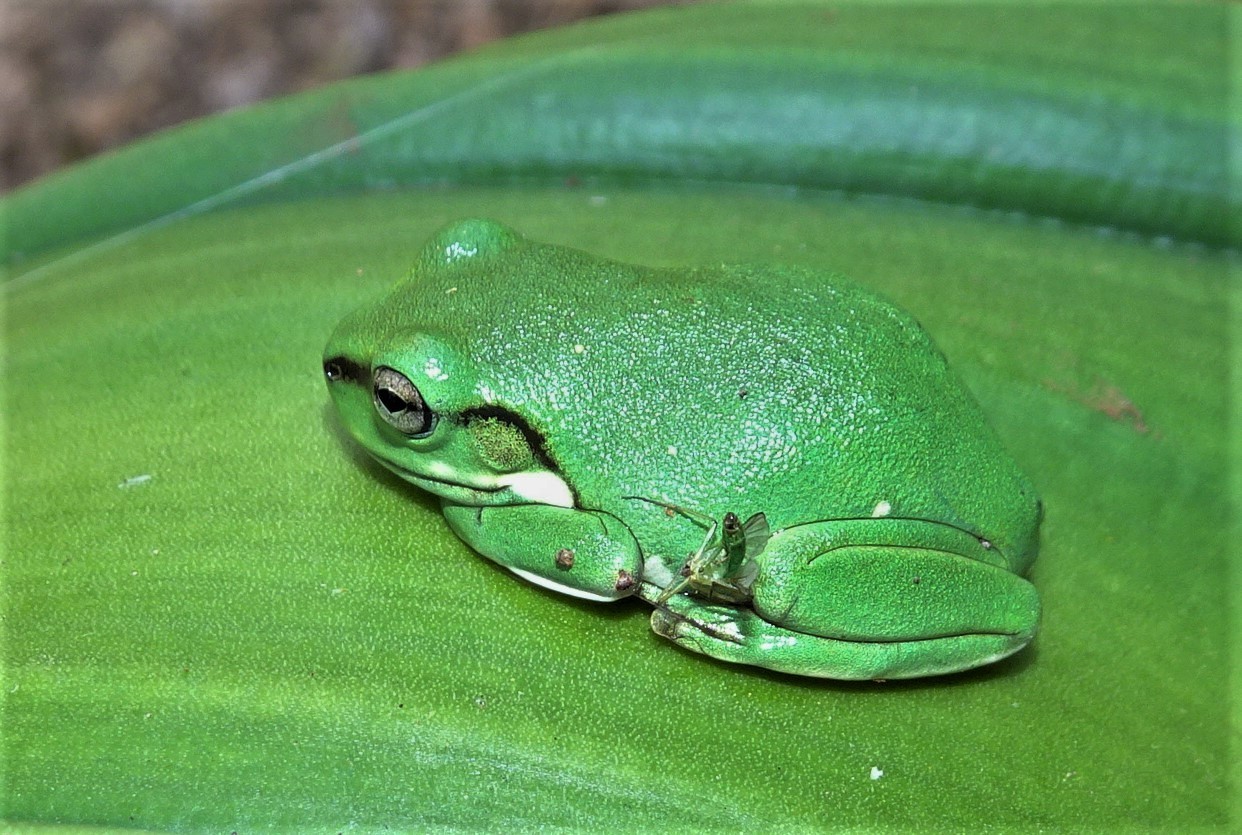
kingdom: Animalia
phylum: Chordata
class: Amphibia
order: Anura
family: Pelodryadidae
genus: Ranoidea
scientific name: Ranoidea caerulea
